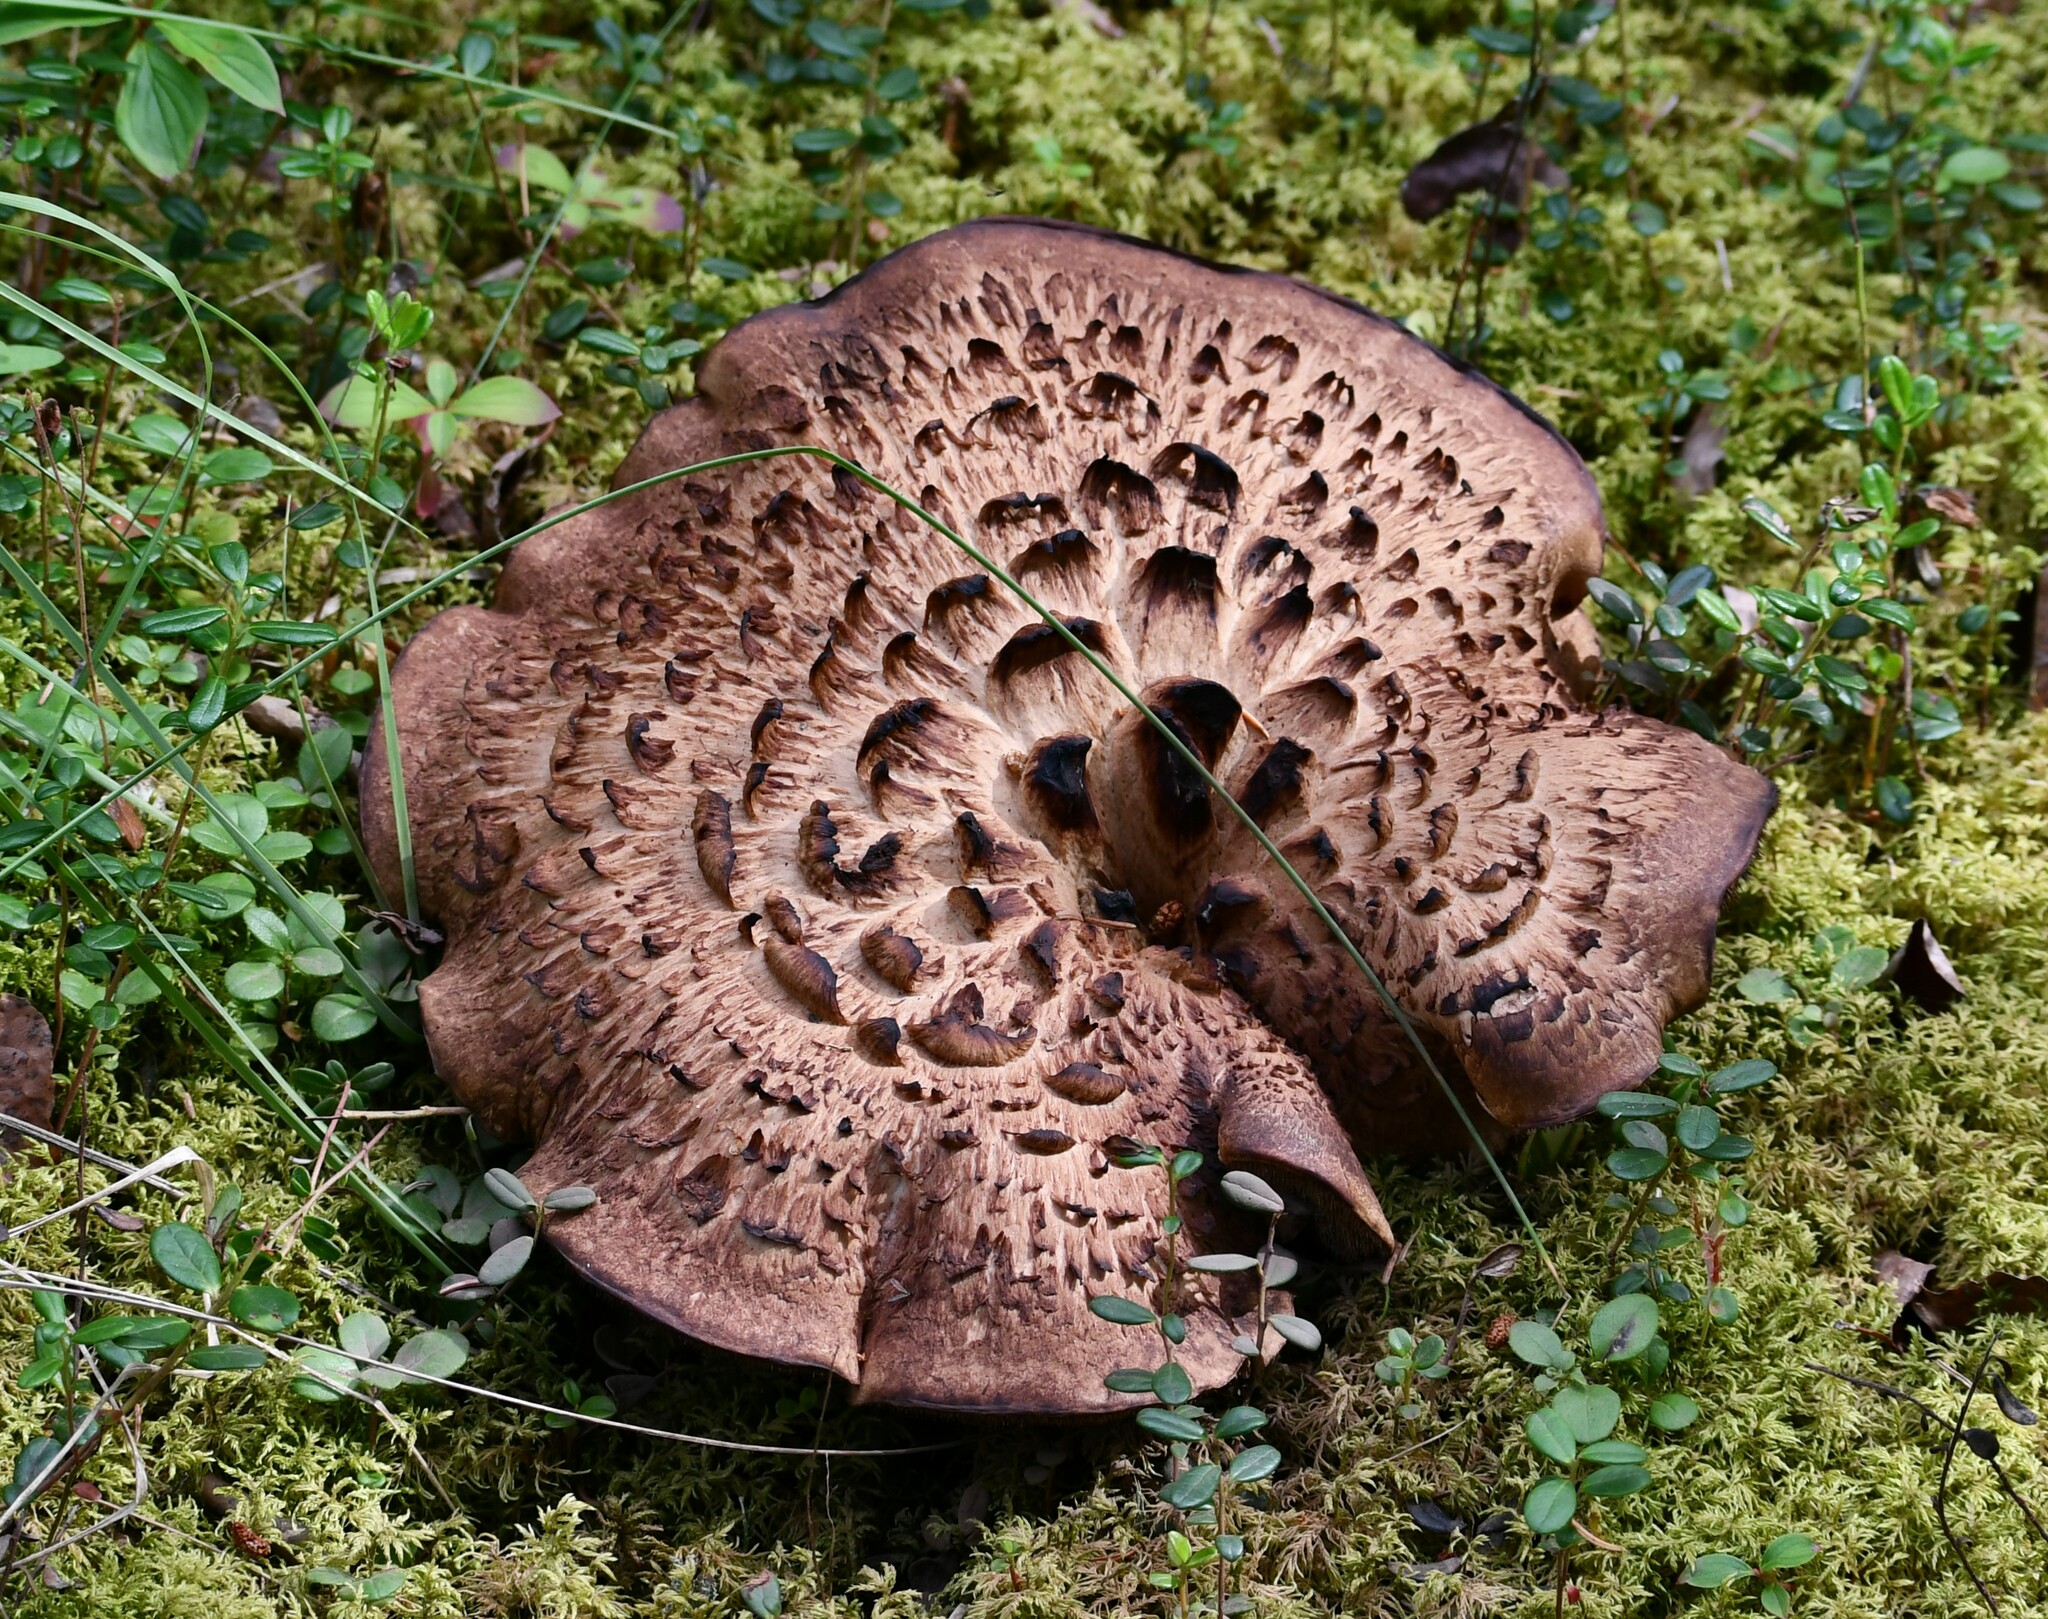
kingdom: Fungi
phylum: Basidiomycota
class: Agaricomycetes
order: Thelephorales
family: Bankeraceae
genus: Sarcodon
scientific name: Sarcodon imbricatus
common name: Shingled hedgehog
